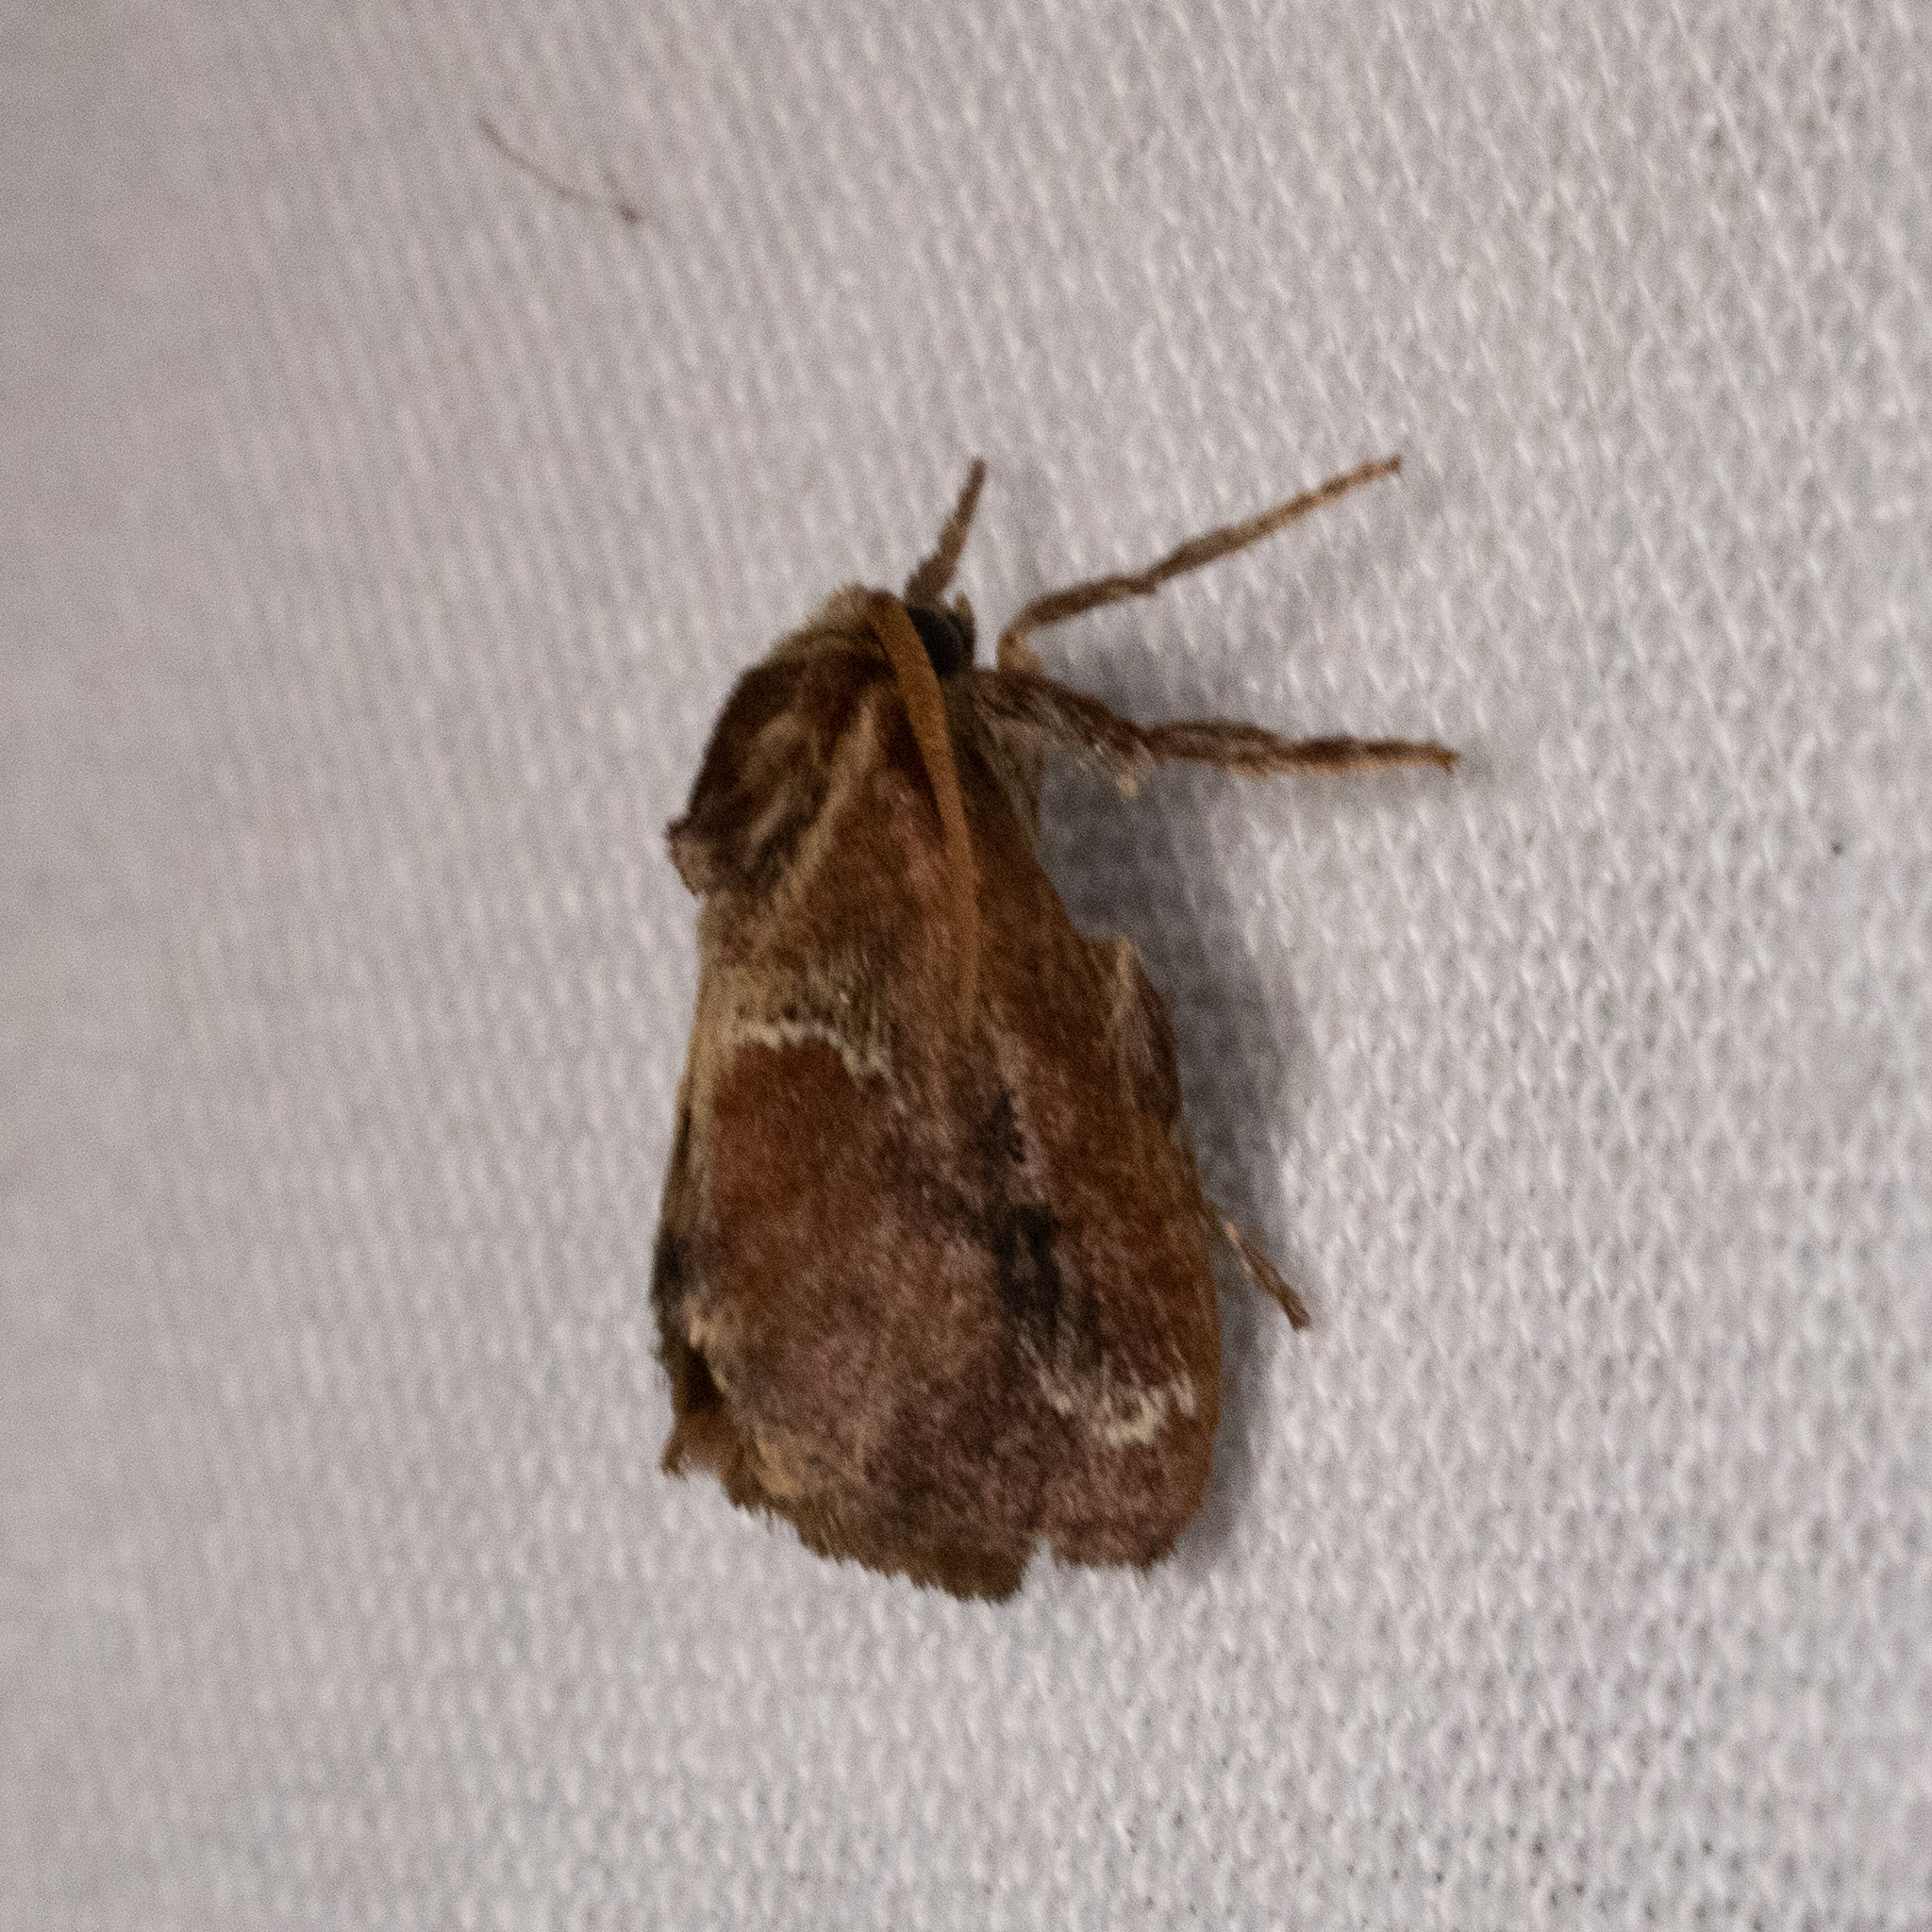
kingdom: Animalia
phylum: Arthropoda
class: Insecta
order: Lepidoptera
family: Limacodidae
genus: Adoneta
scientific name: Adoneta spinuloides
